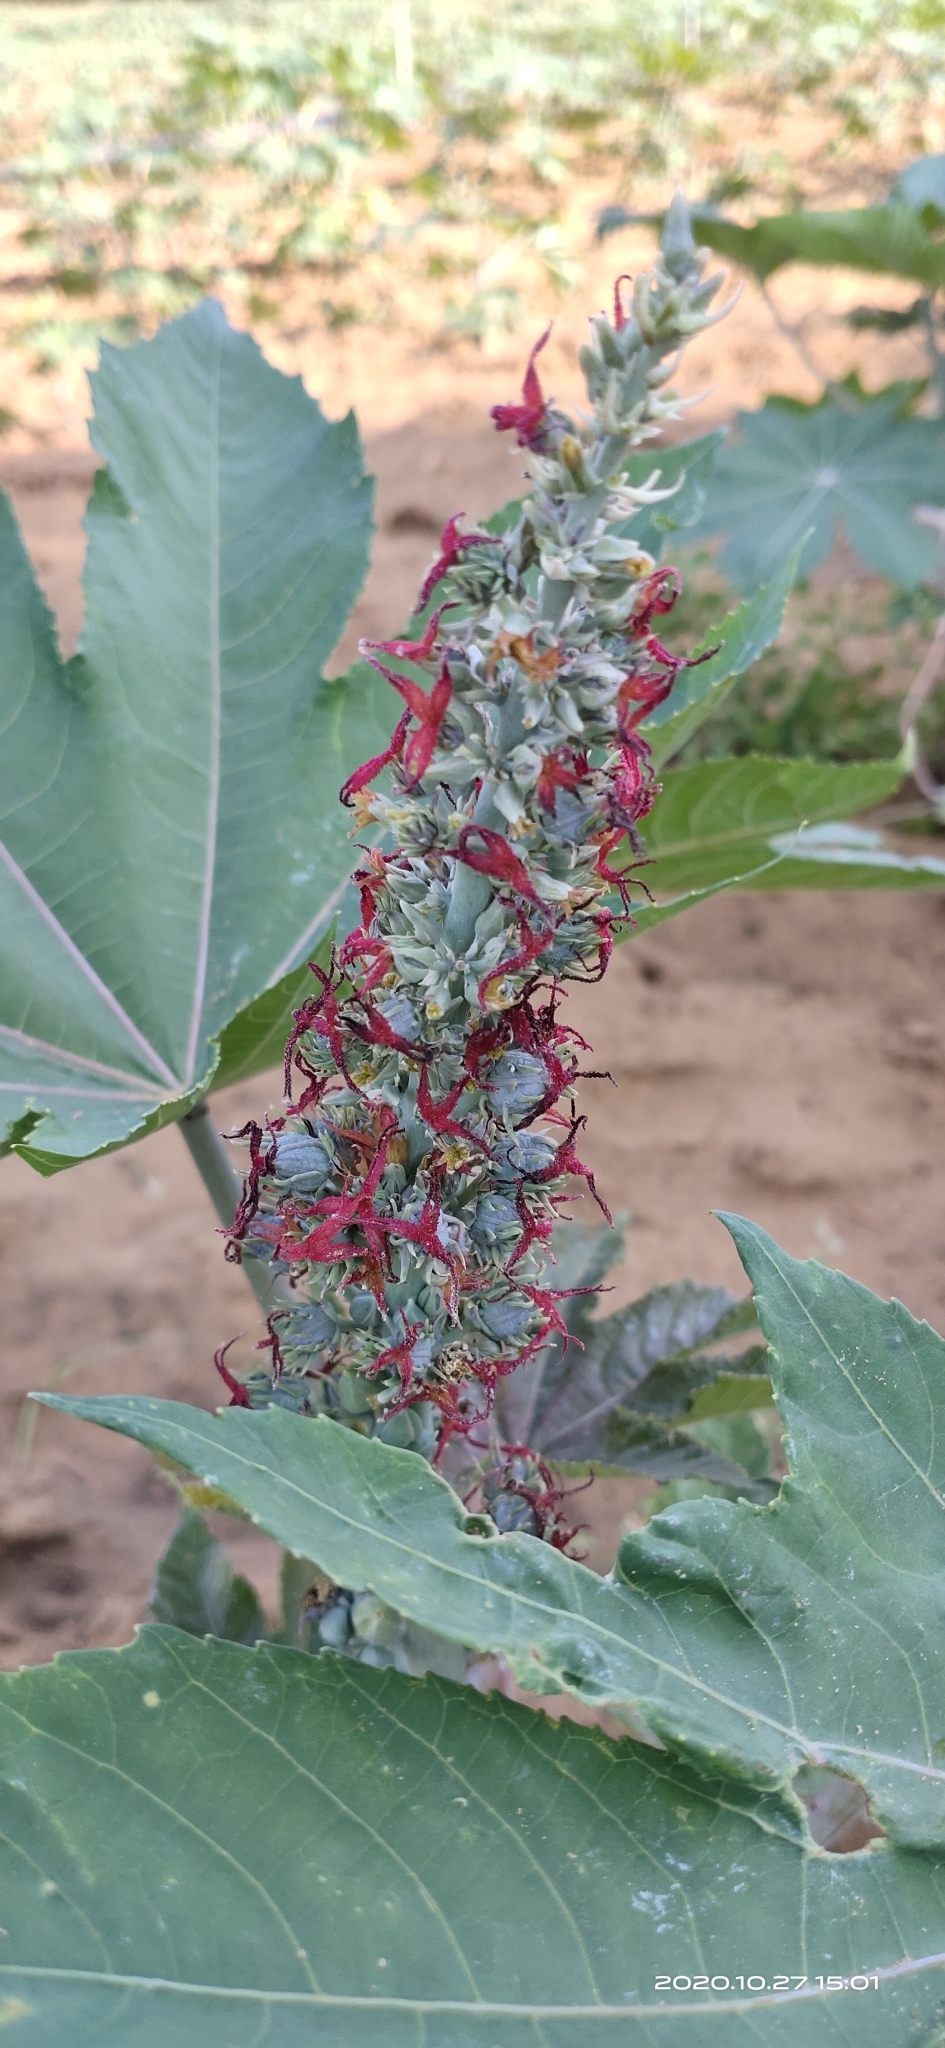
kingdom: Plantae
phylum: Tracheophyta
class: Magnoliopsida
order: Malpighiales
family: Euphorbiaceae
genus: Ricinus
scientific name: Ricinus communis
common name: Castor-oil-plant
